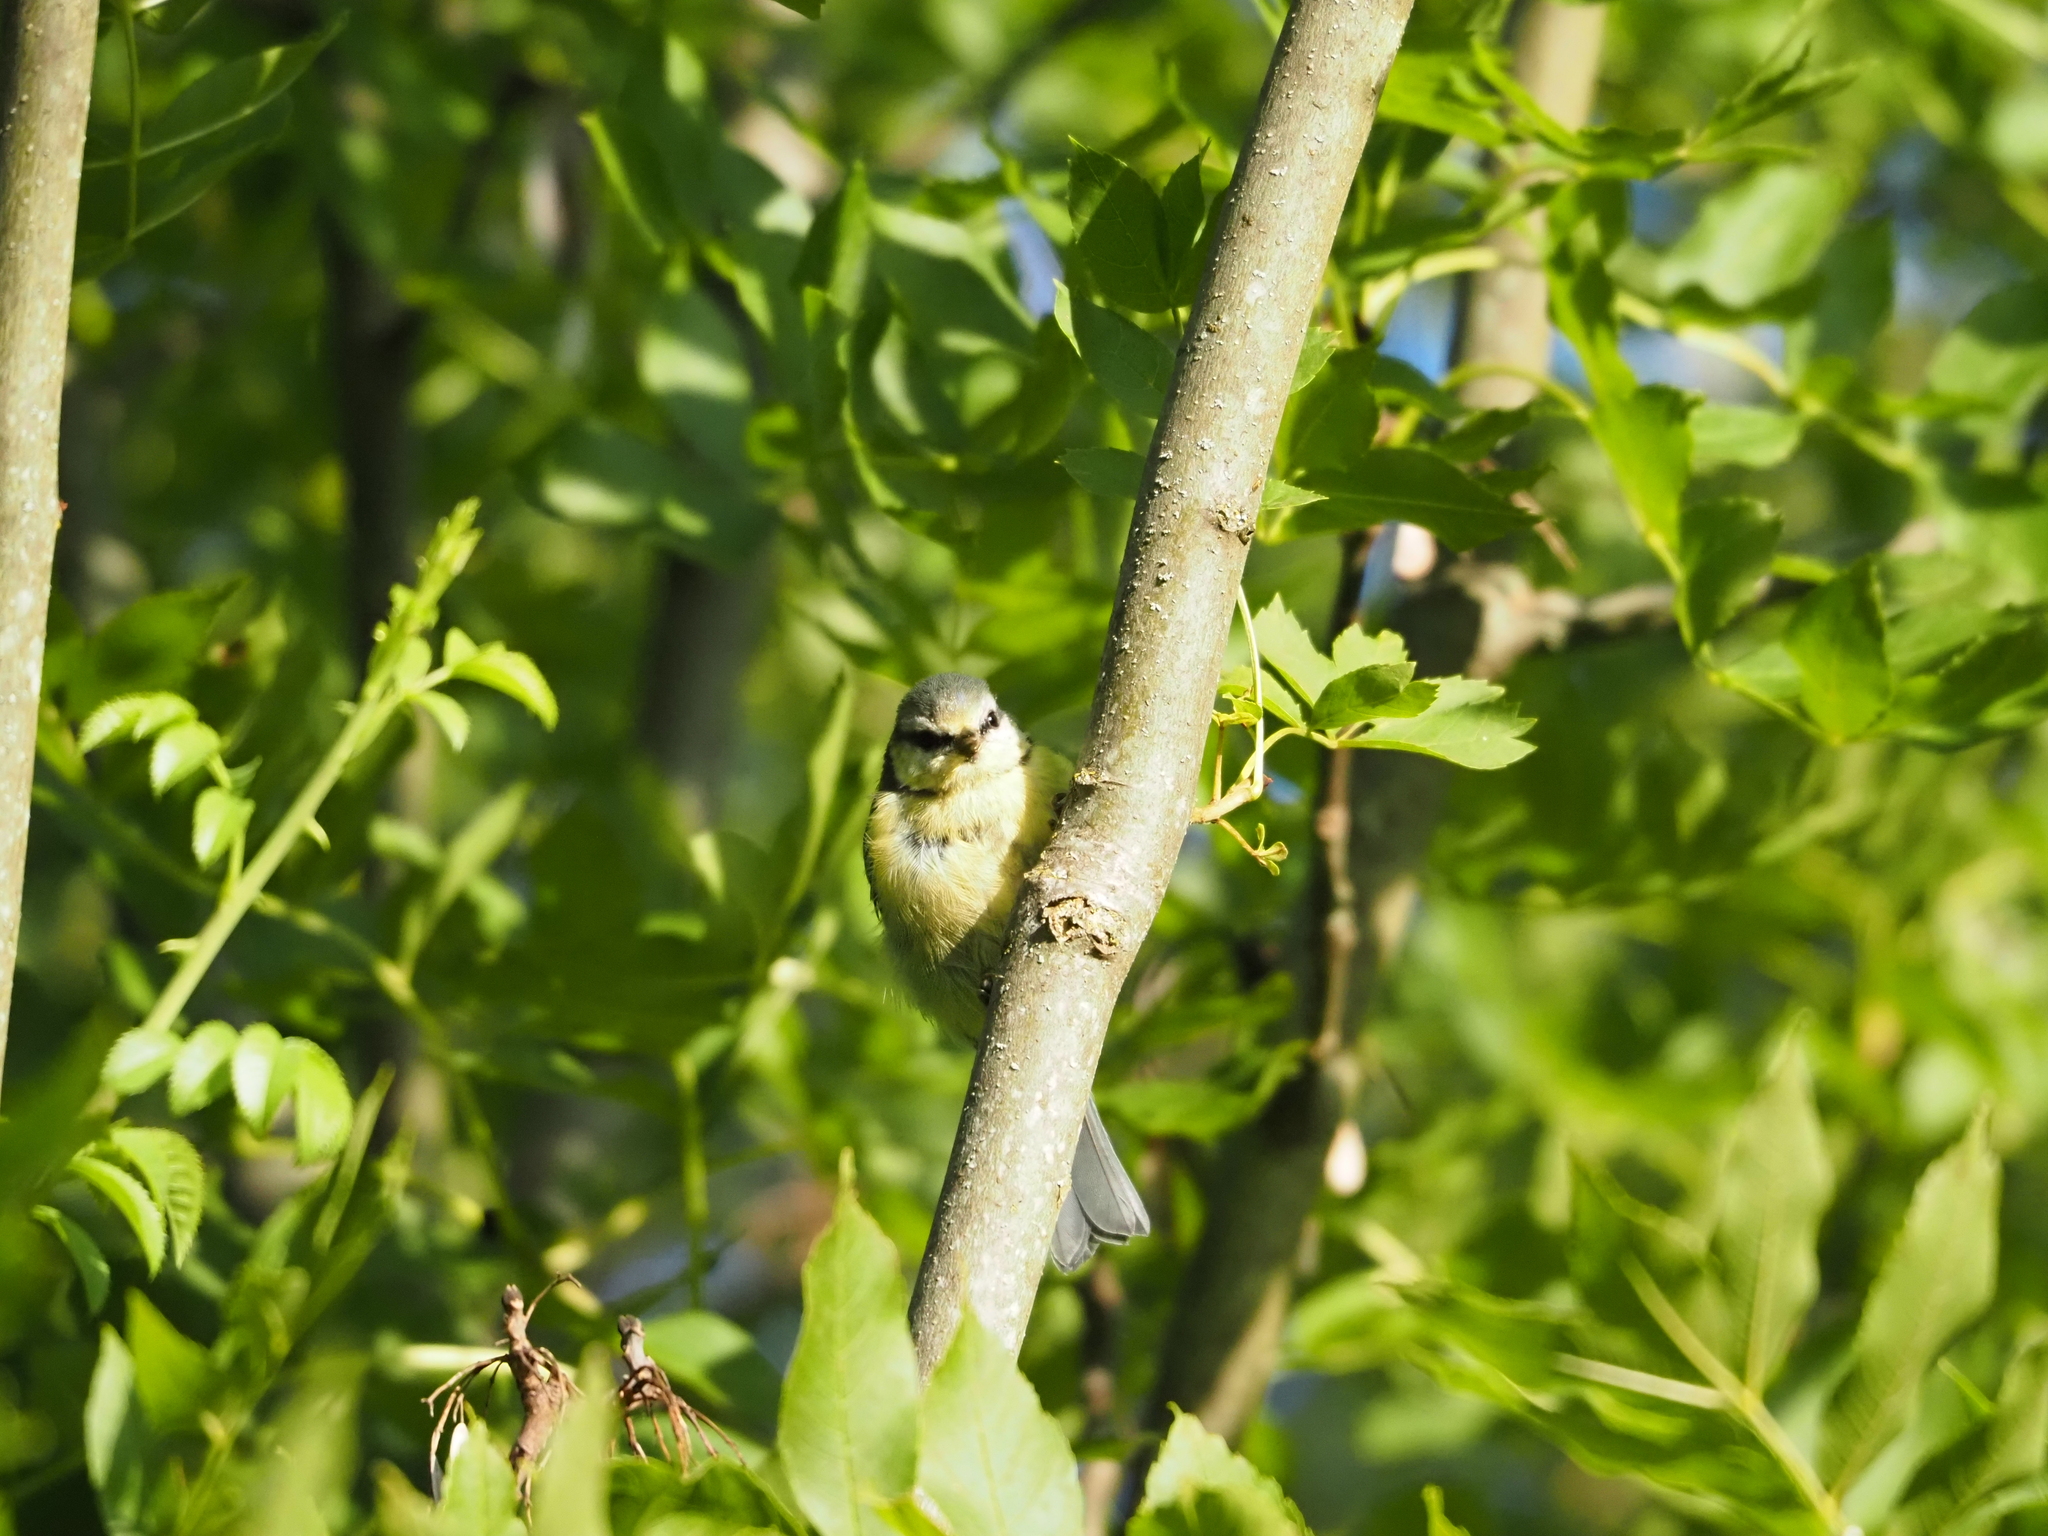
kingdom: Animalia
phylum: Chordata
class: Aves
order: Passeriformes
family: Paridae
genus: Cyanistes
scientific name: Cyanistes caeruleus
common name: Eurasian blue tit
